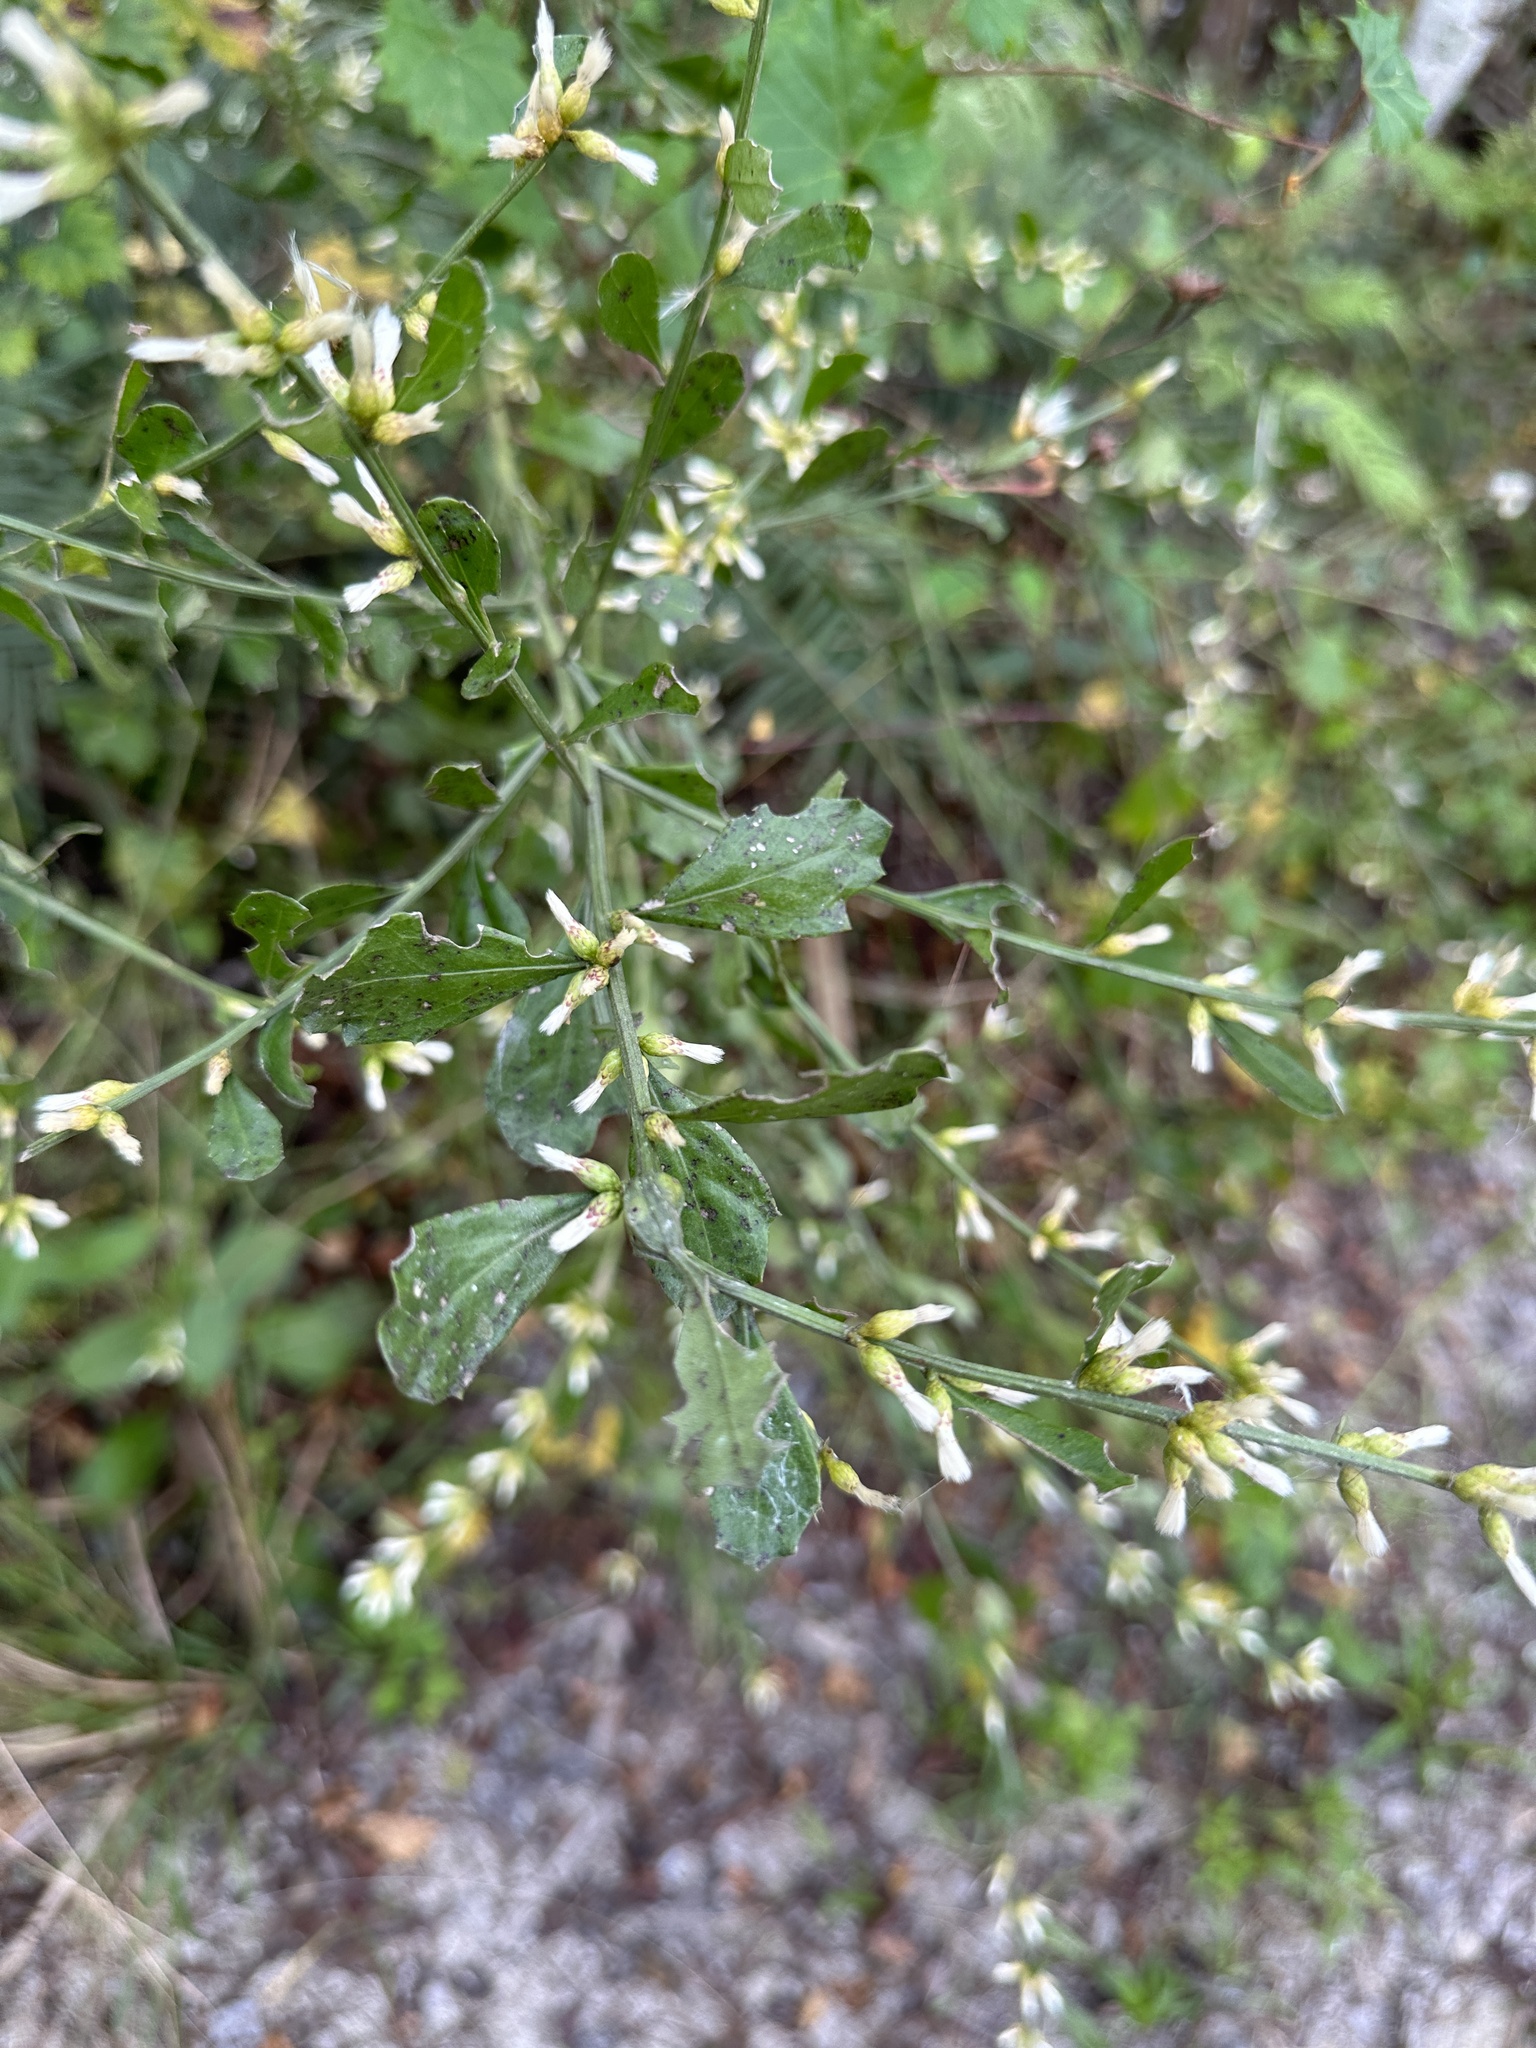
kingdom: Plantae
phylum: Tracheophyta
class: Magnoliopsida
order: Asterales
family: Asteraceae
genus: Baccharis
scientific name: Baccharis glomeruliflora
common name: Silverling groundsel bush
